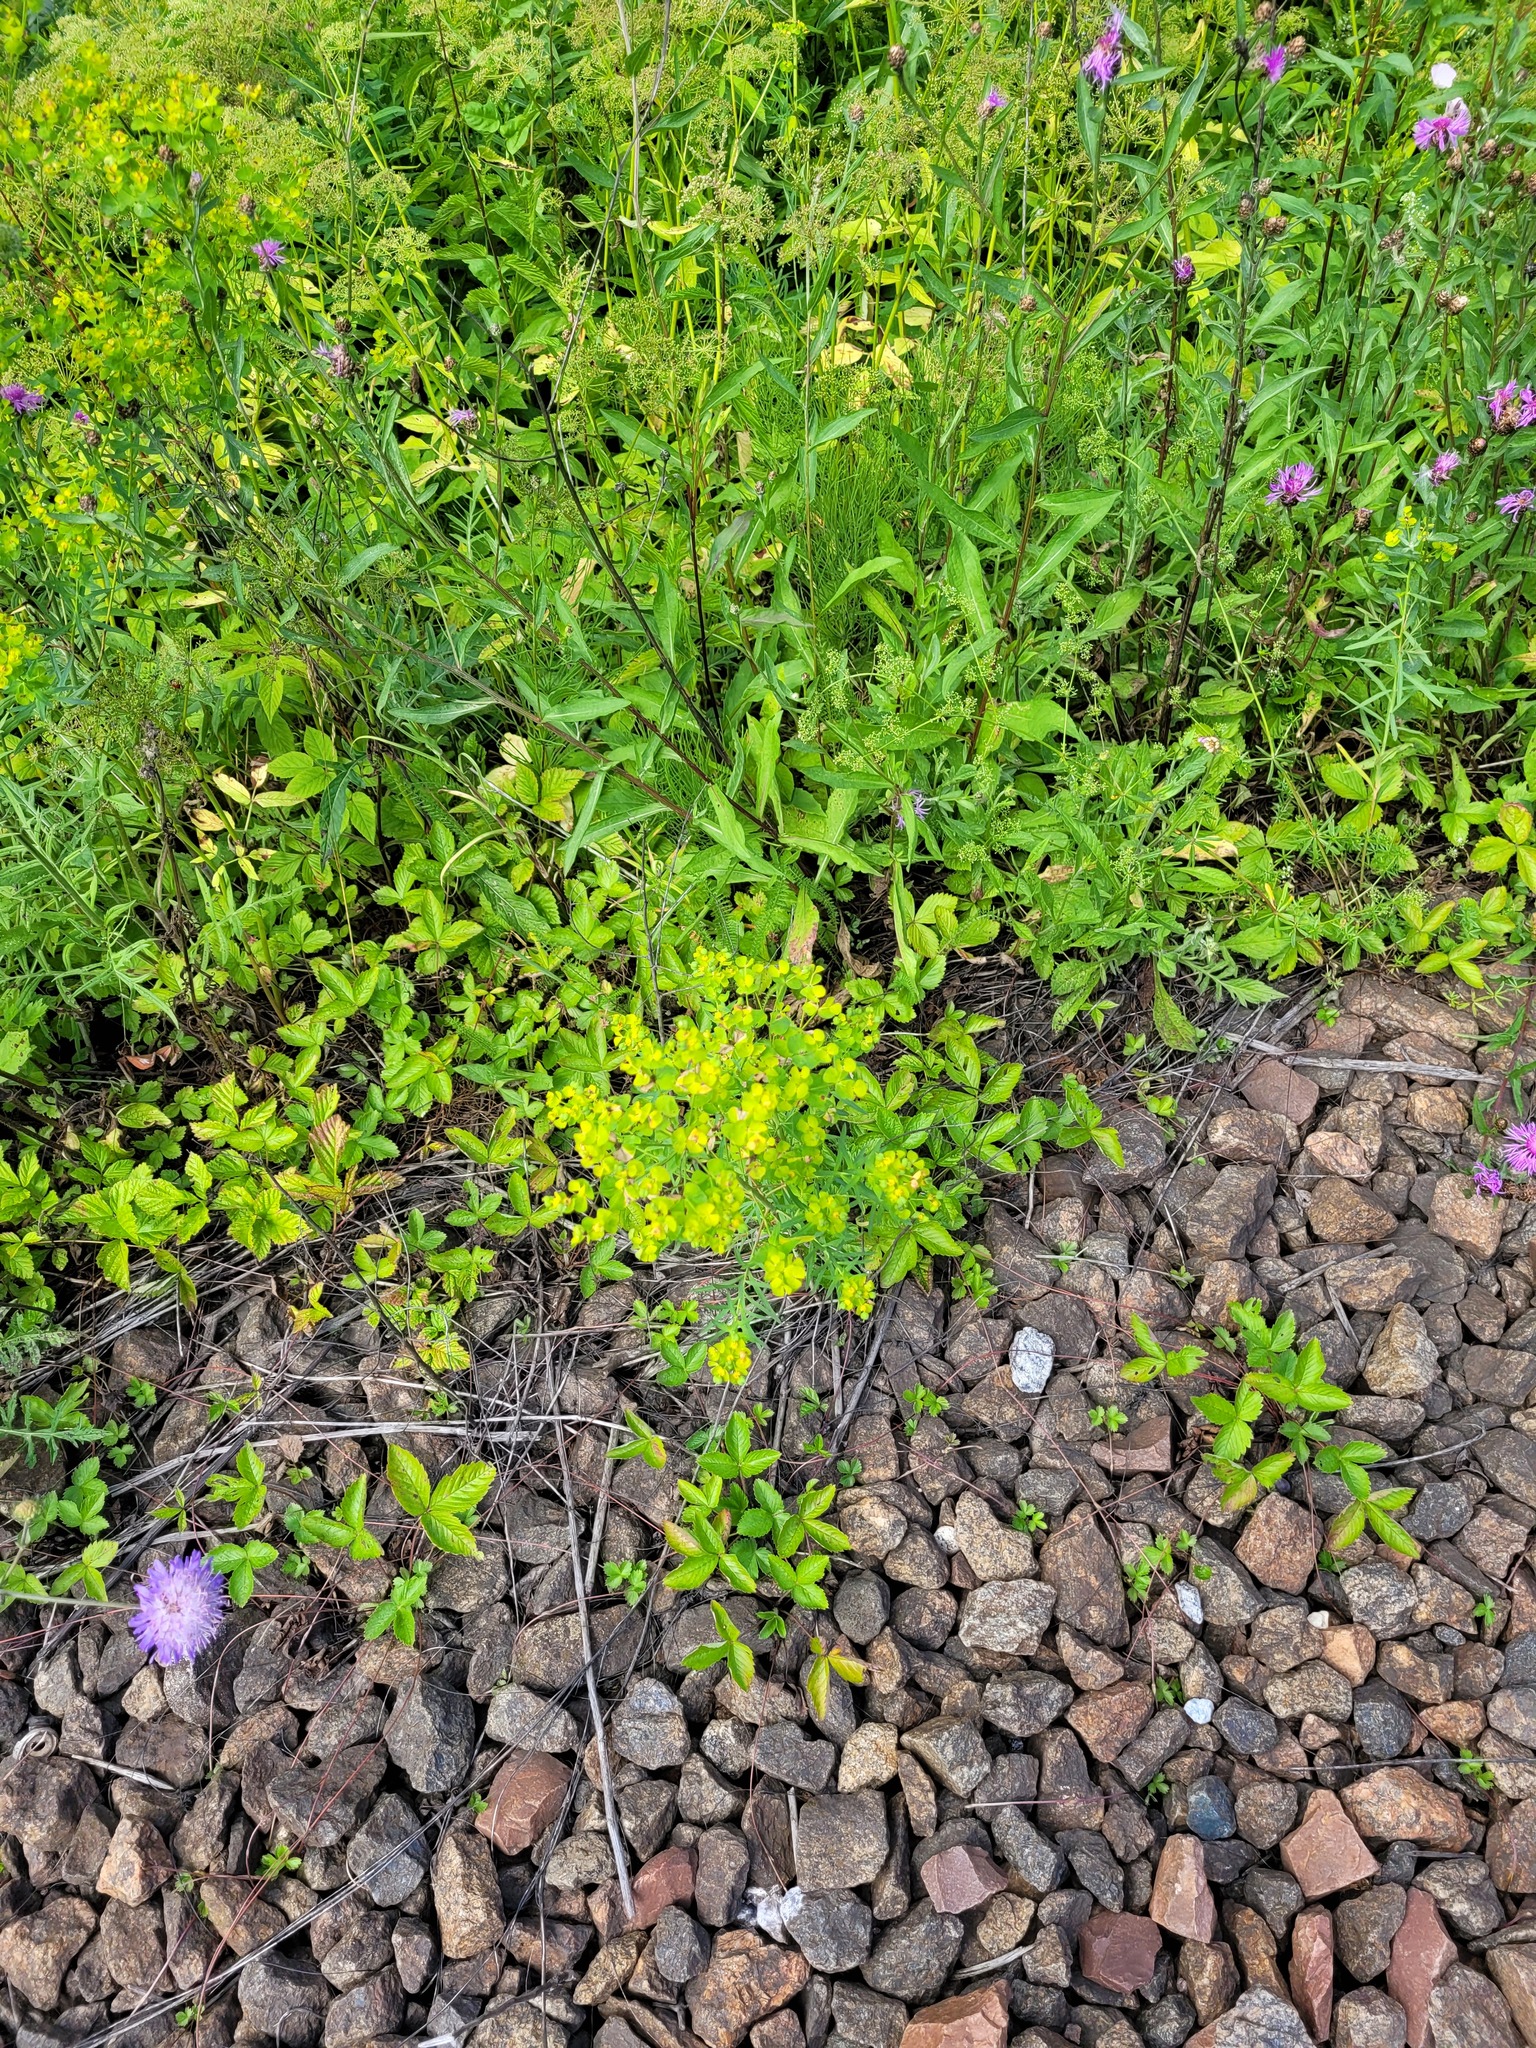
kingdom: Plantae
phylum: Tracheophyta
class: Magnoliopsida
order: Malpighiales
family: Euphorbiaceae
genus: Euphorbia
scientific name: Euphorbia virgata
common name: Leafy spurge
